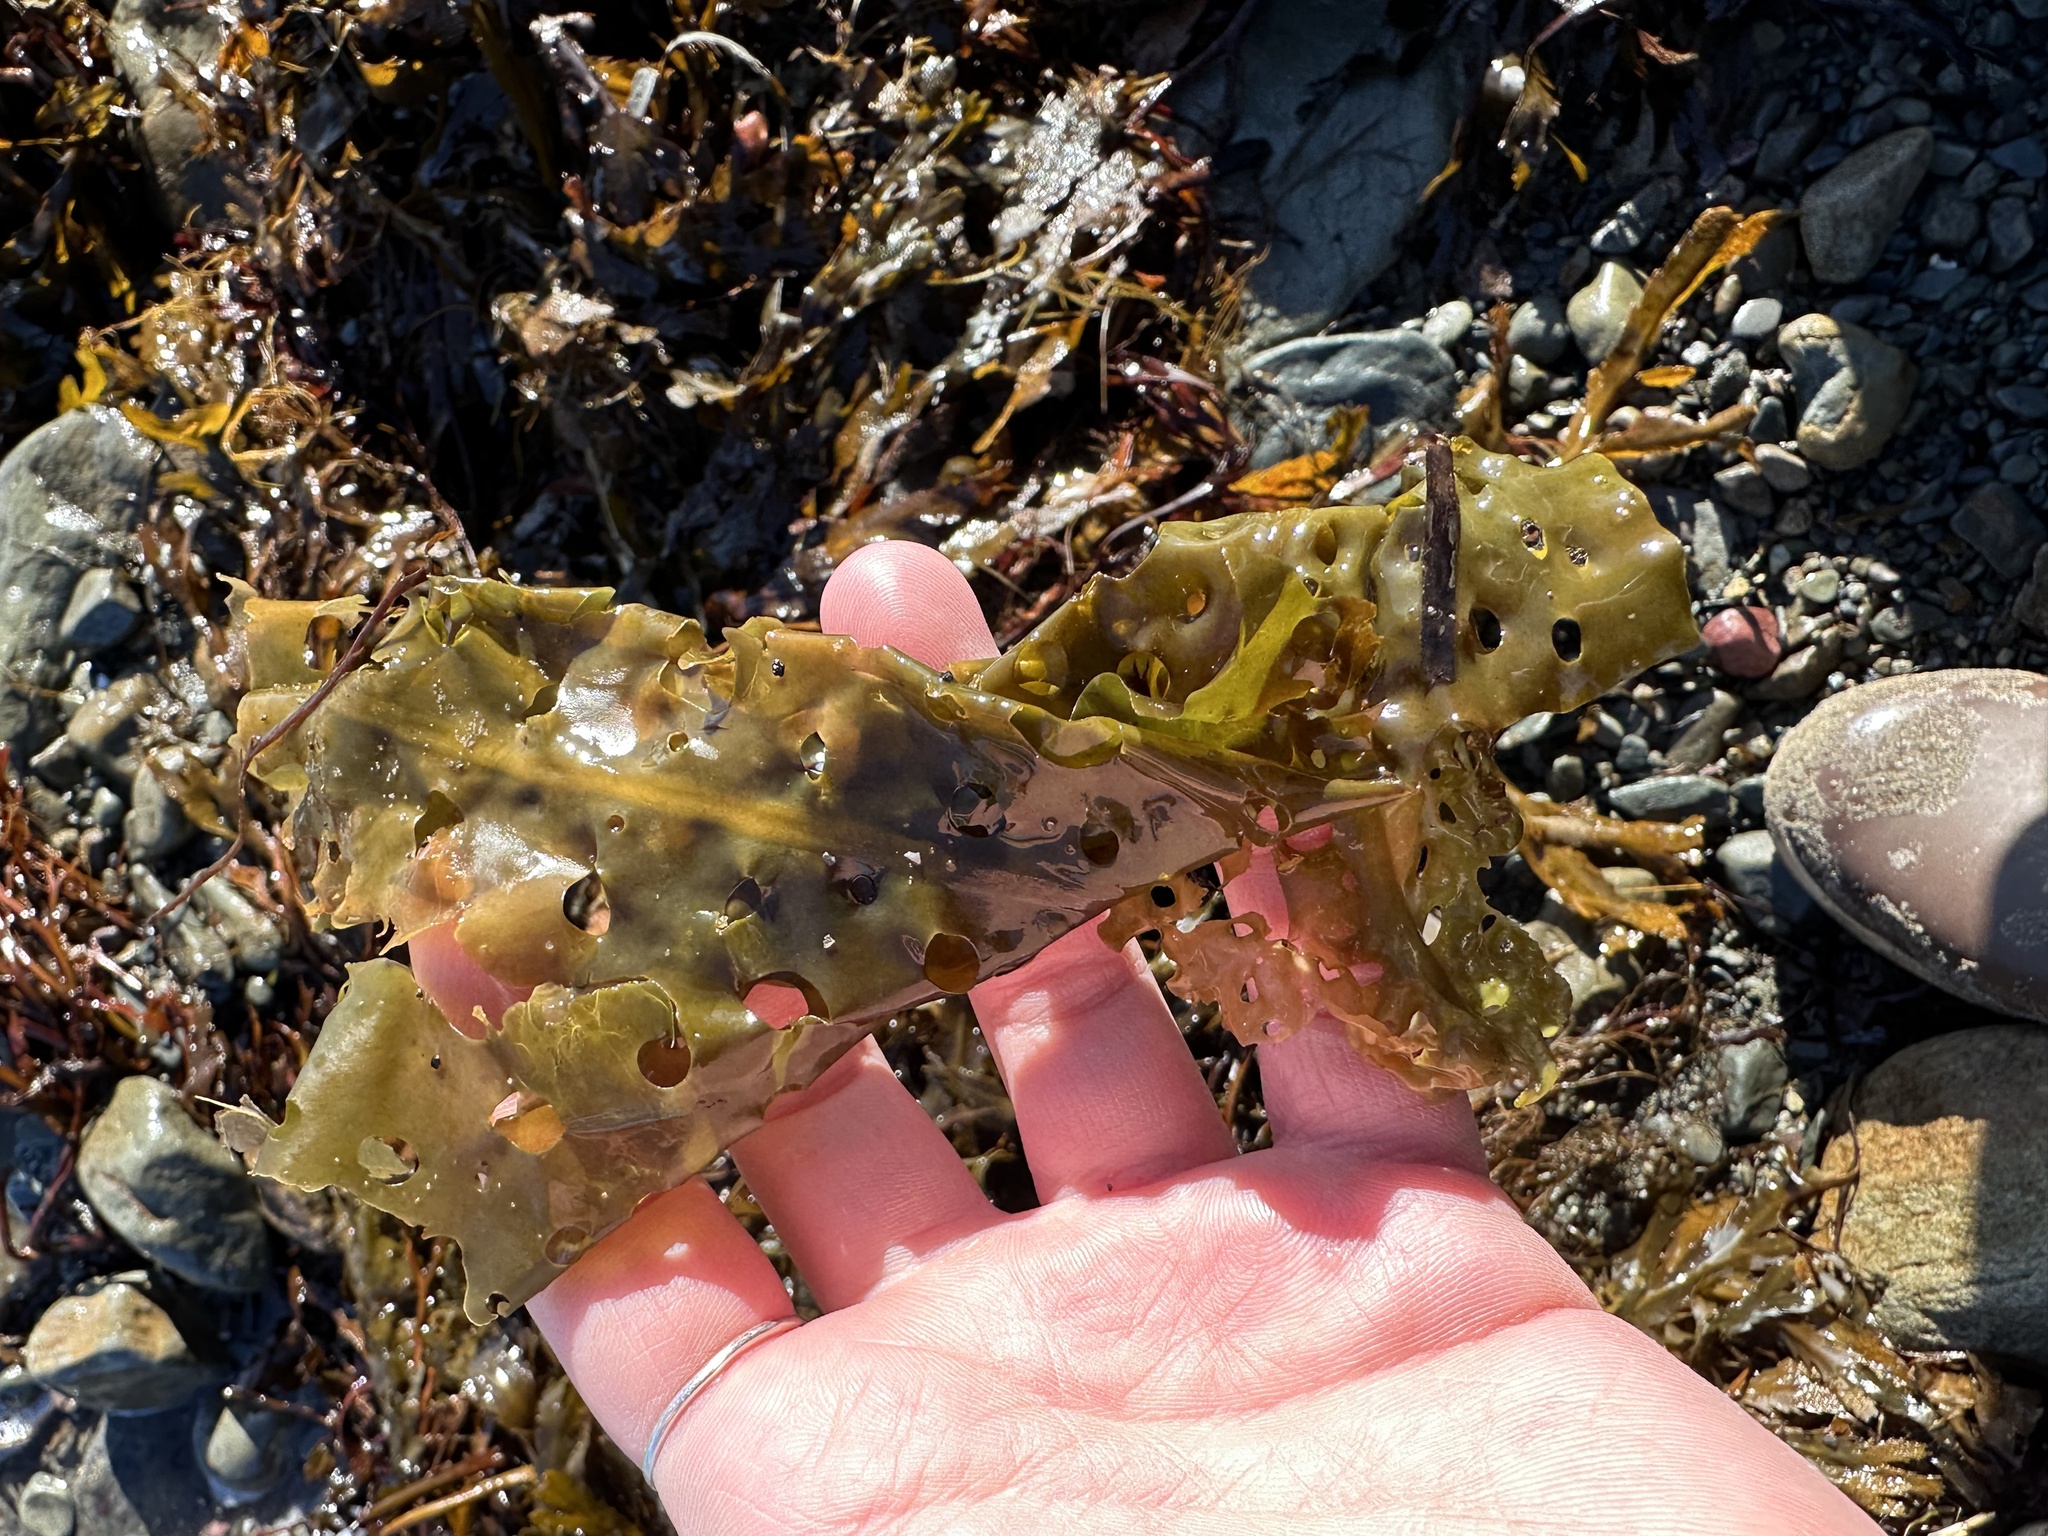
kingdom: Chromista
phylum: Ochrophyta
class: Phaeophyceae
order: Laminariales
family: Costariaceae
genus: Agarum
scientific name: Agarum clathratum
